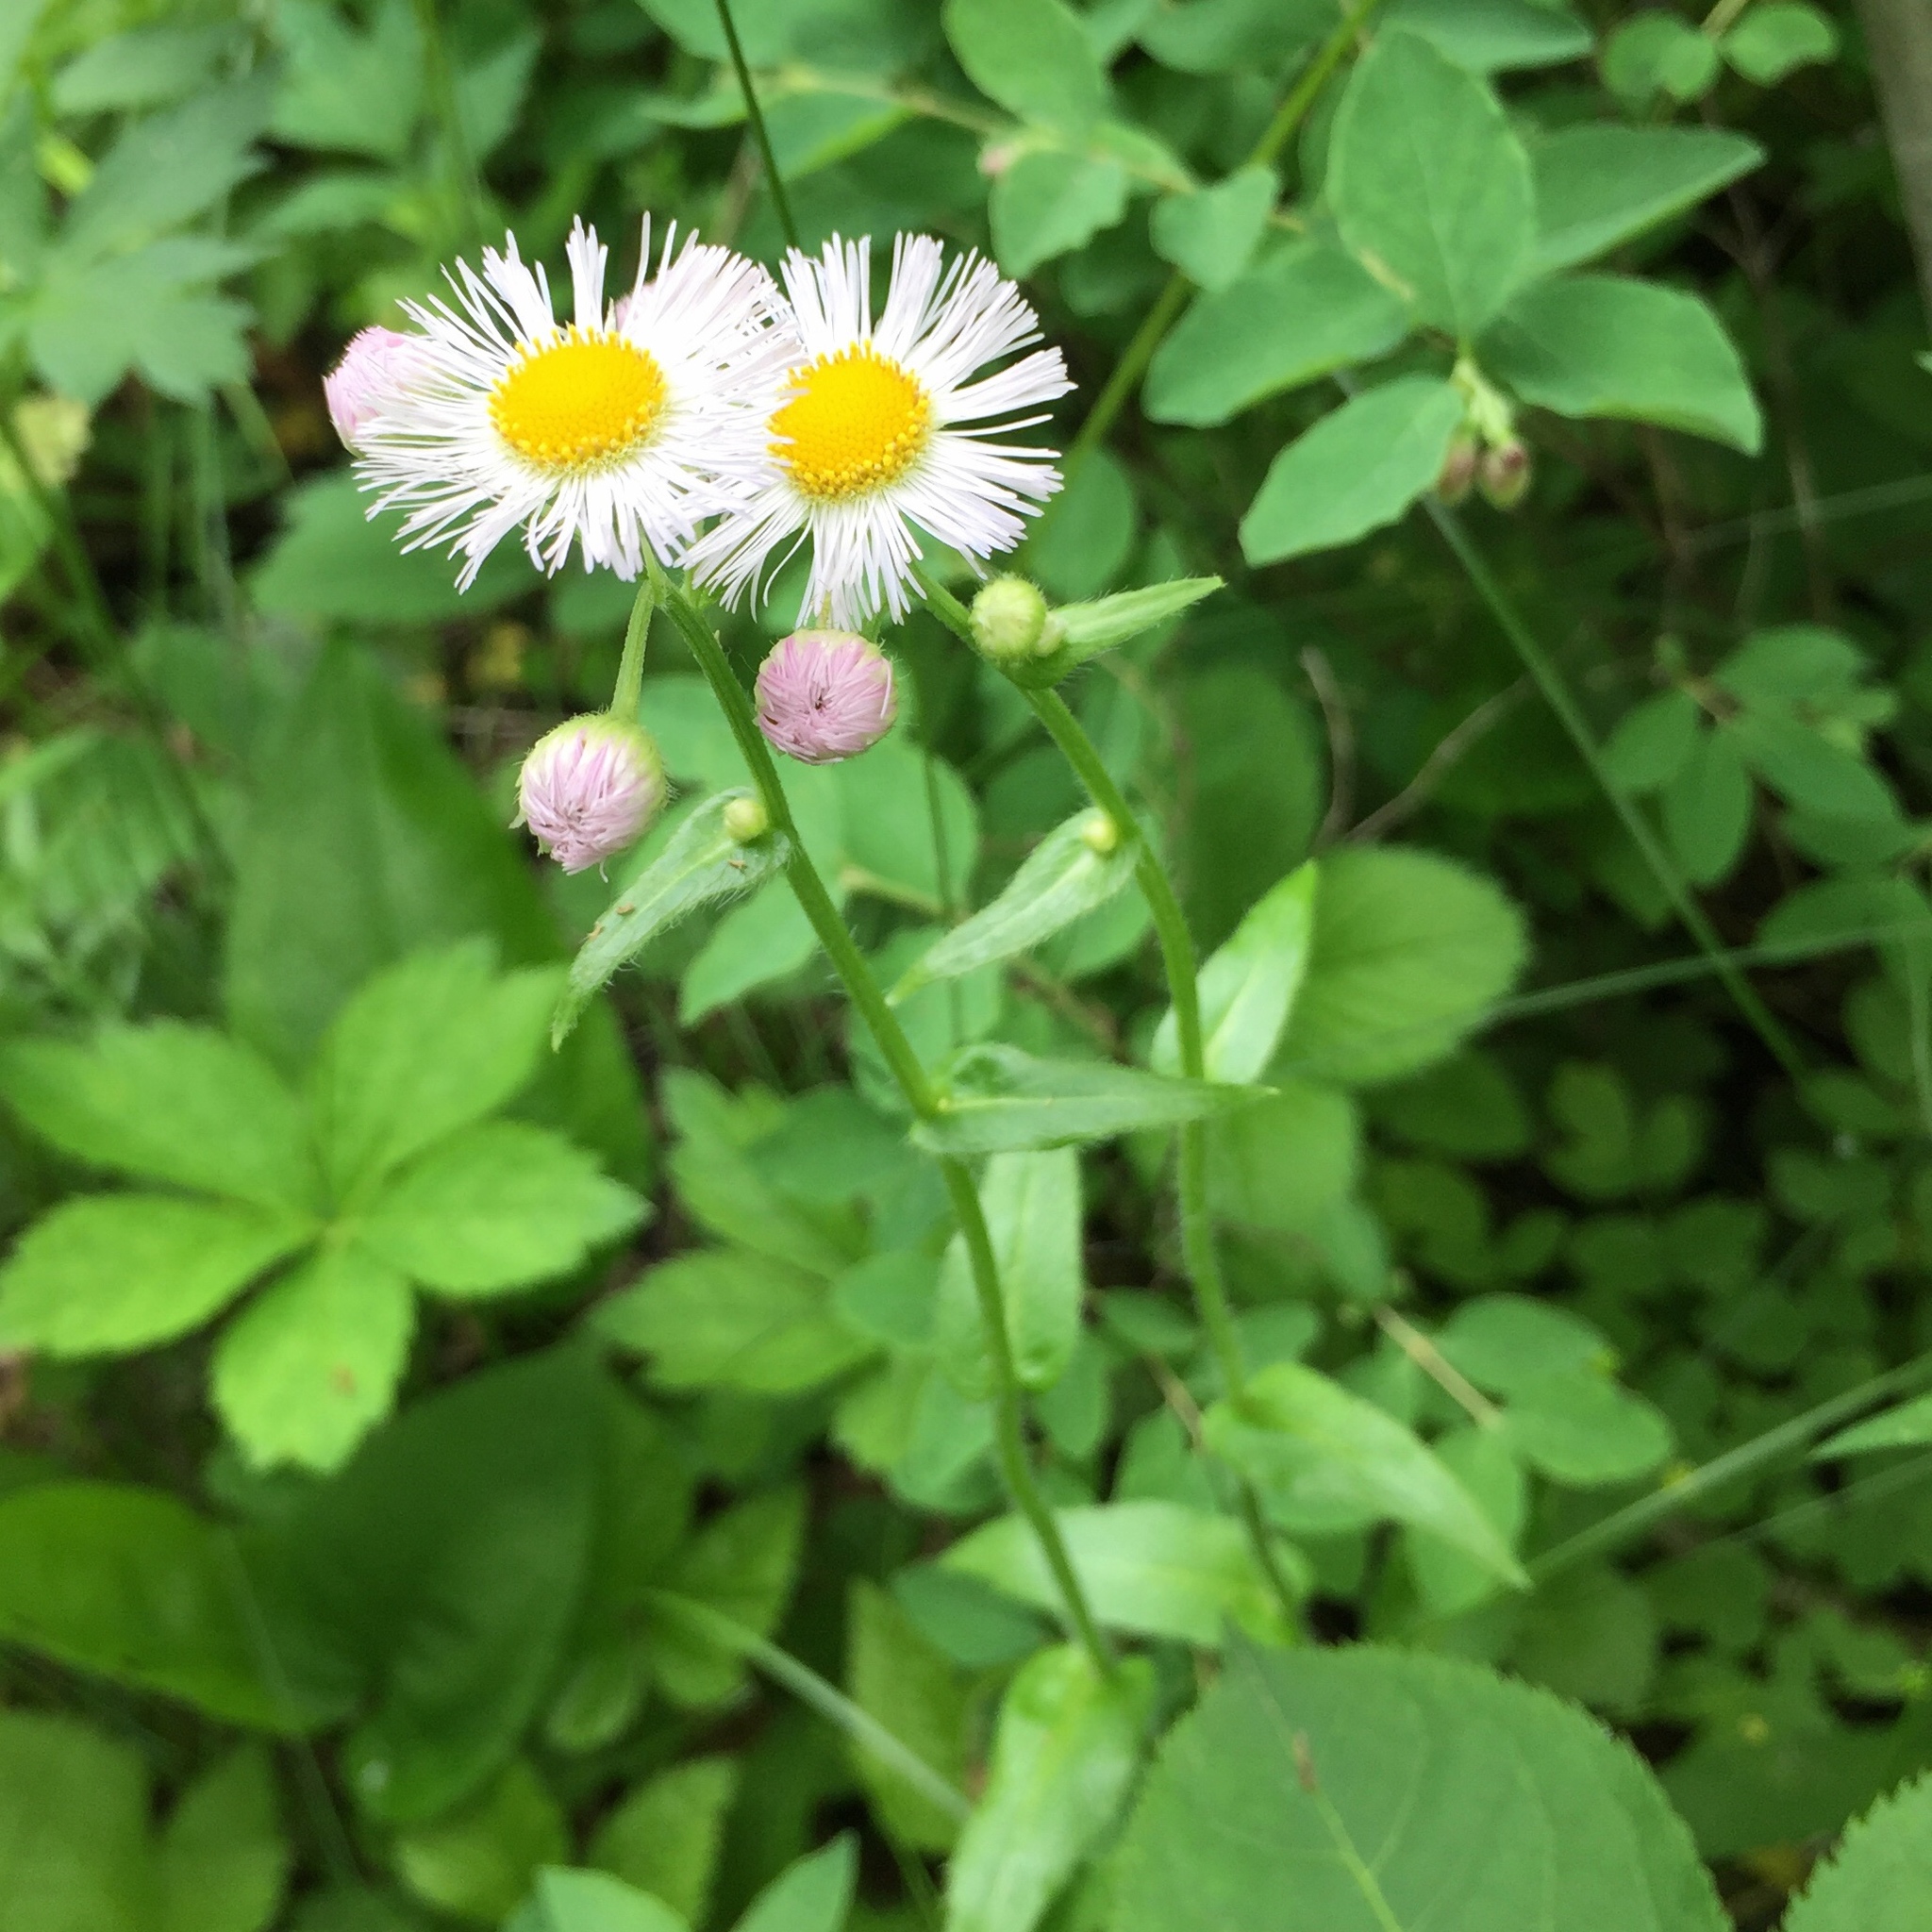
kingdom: Plantae
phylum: Tracheophyta
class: Magnoliopsida
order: Asterales
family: Asteraceae
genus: Erigeron
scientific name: Erigeron philadelphicus
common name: Robin's-plantain
